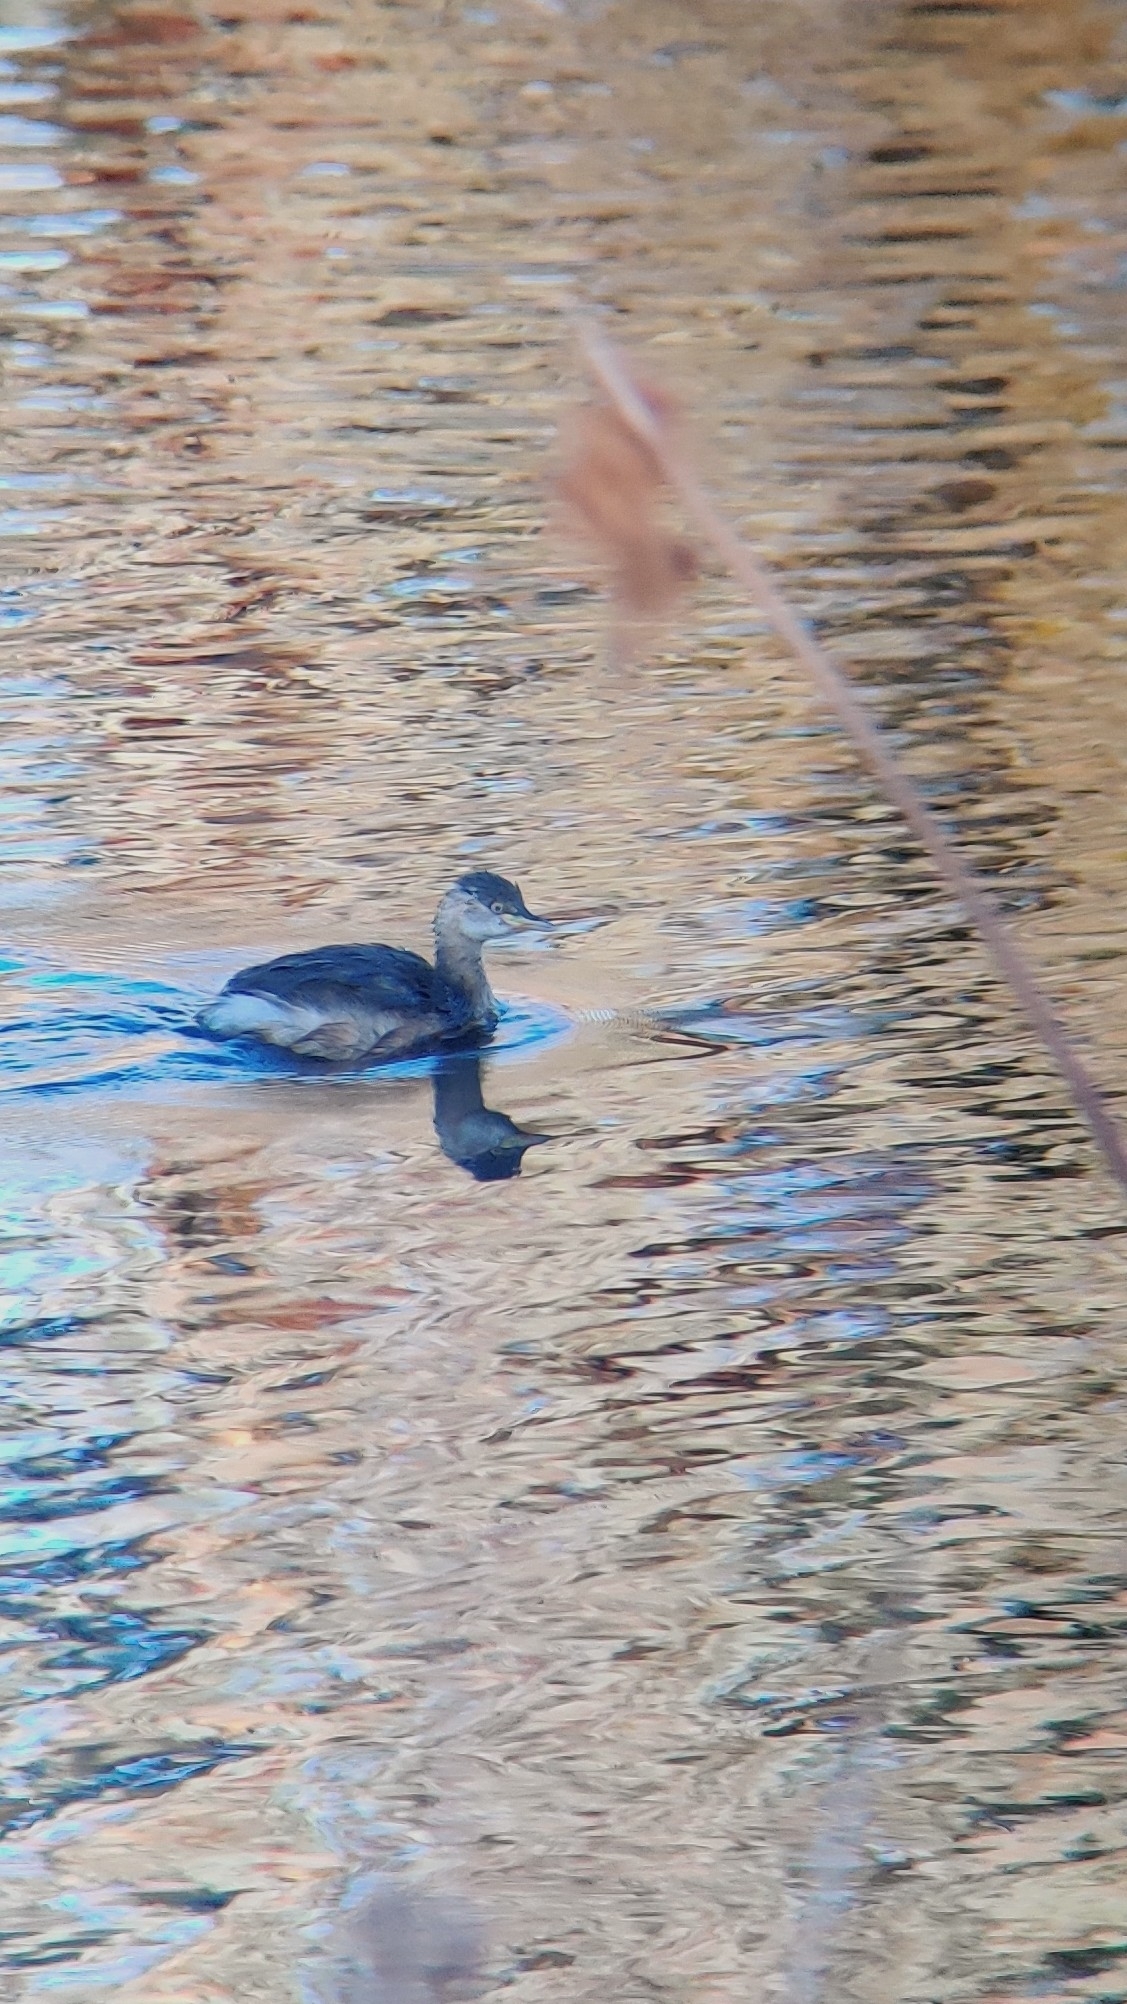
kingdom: Animalia
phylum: Chordata
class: Aves
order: Podicipediformes
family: Podicipedidae
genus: Tachybaptus
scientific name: Tachybaptus novaehollandiae
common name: Australasian grebe
